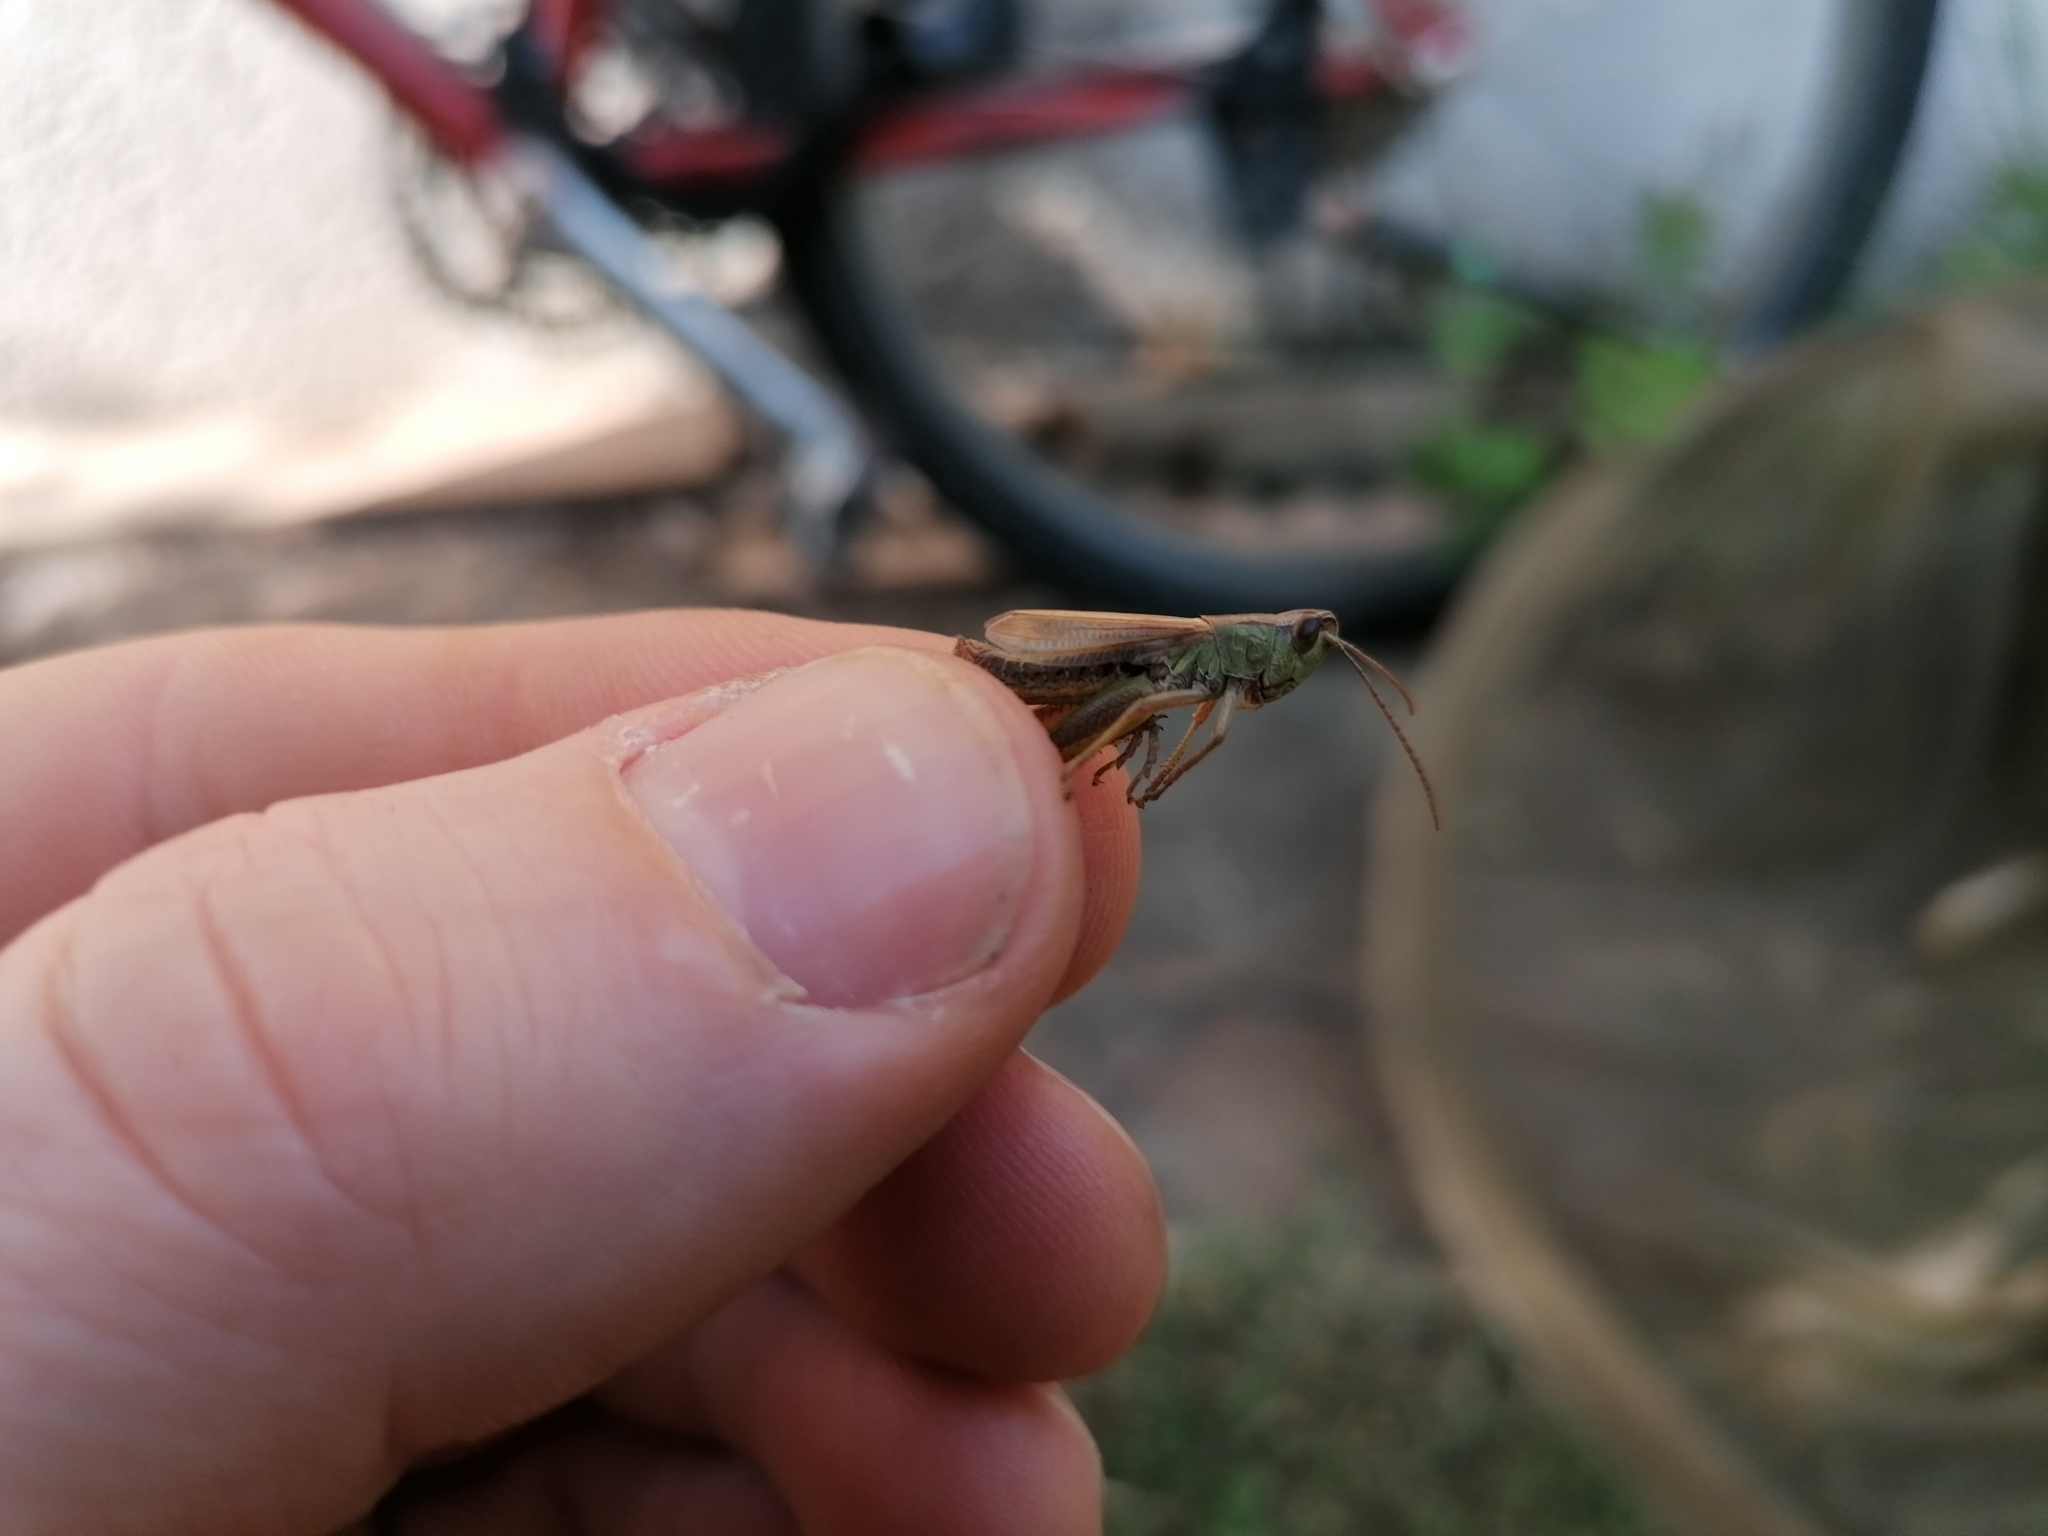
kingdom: Animalia
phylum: Arthropoda
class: Insecta
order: Orthoptera
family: Acrididae
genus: Pseudochorthippus
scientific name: Pseudochorthippus parallelus
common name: Meadow grasshopper
